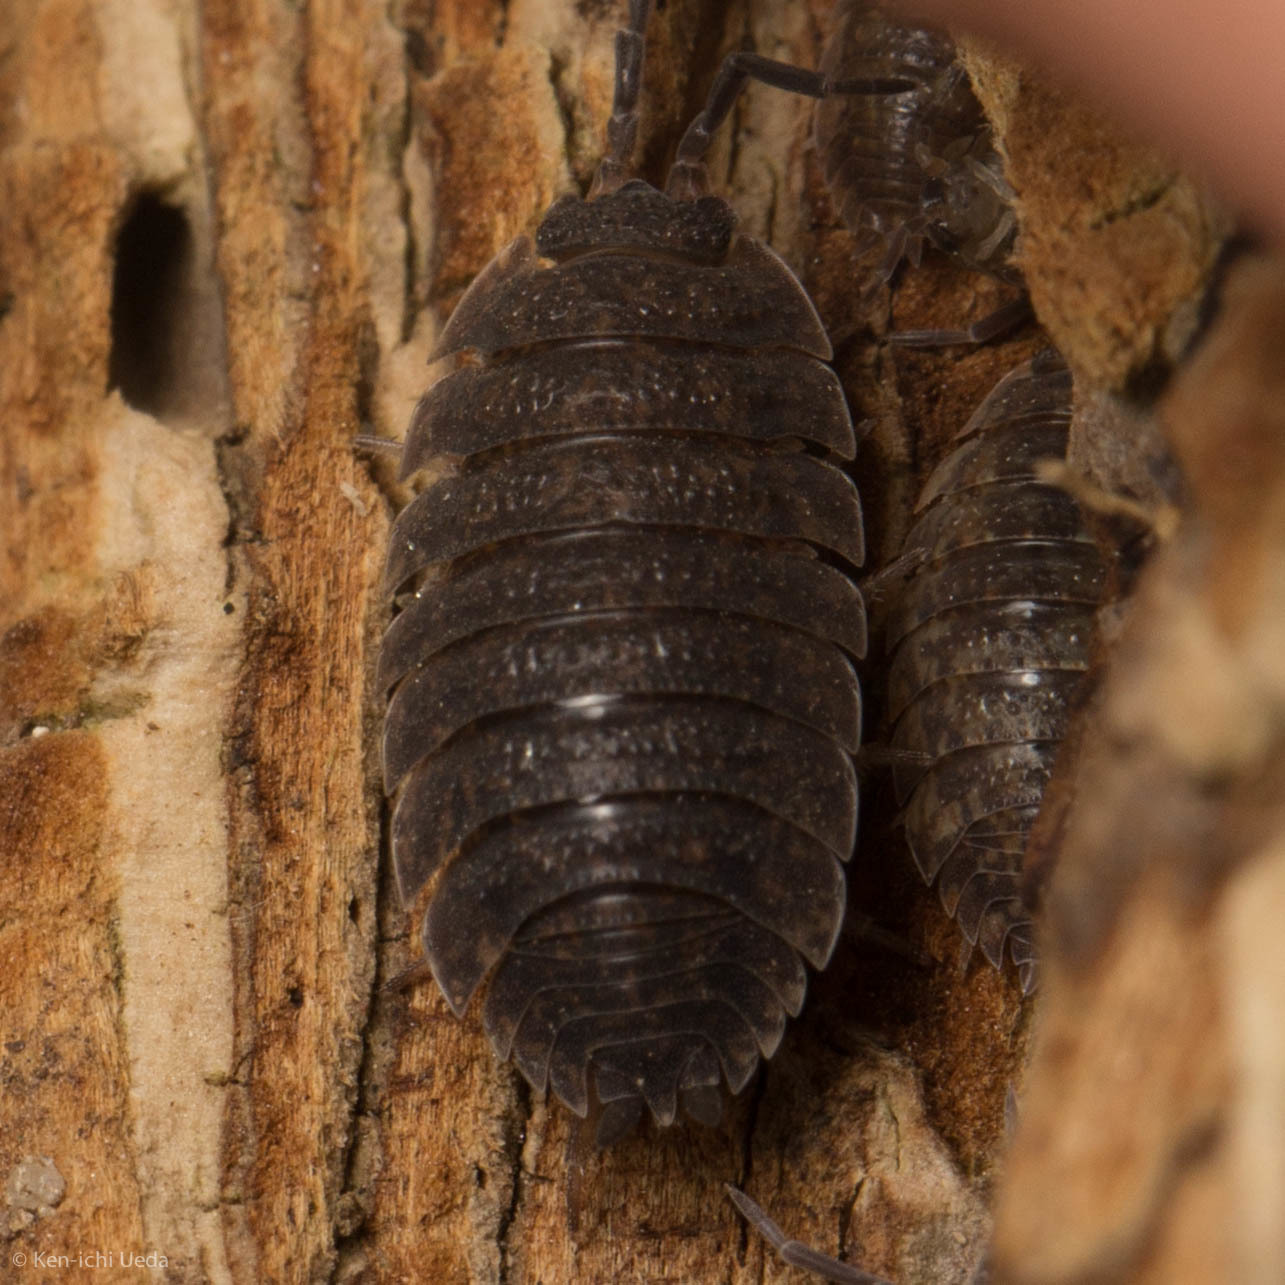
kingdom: Animalia
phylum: Arthropoda
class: Malacostraca
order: Isopoda
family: Porcellionidae
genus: Porcellio
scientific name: Porcellio scaber
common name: Common rough woodlouse
